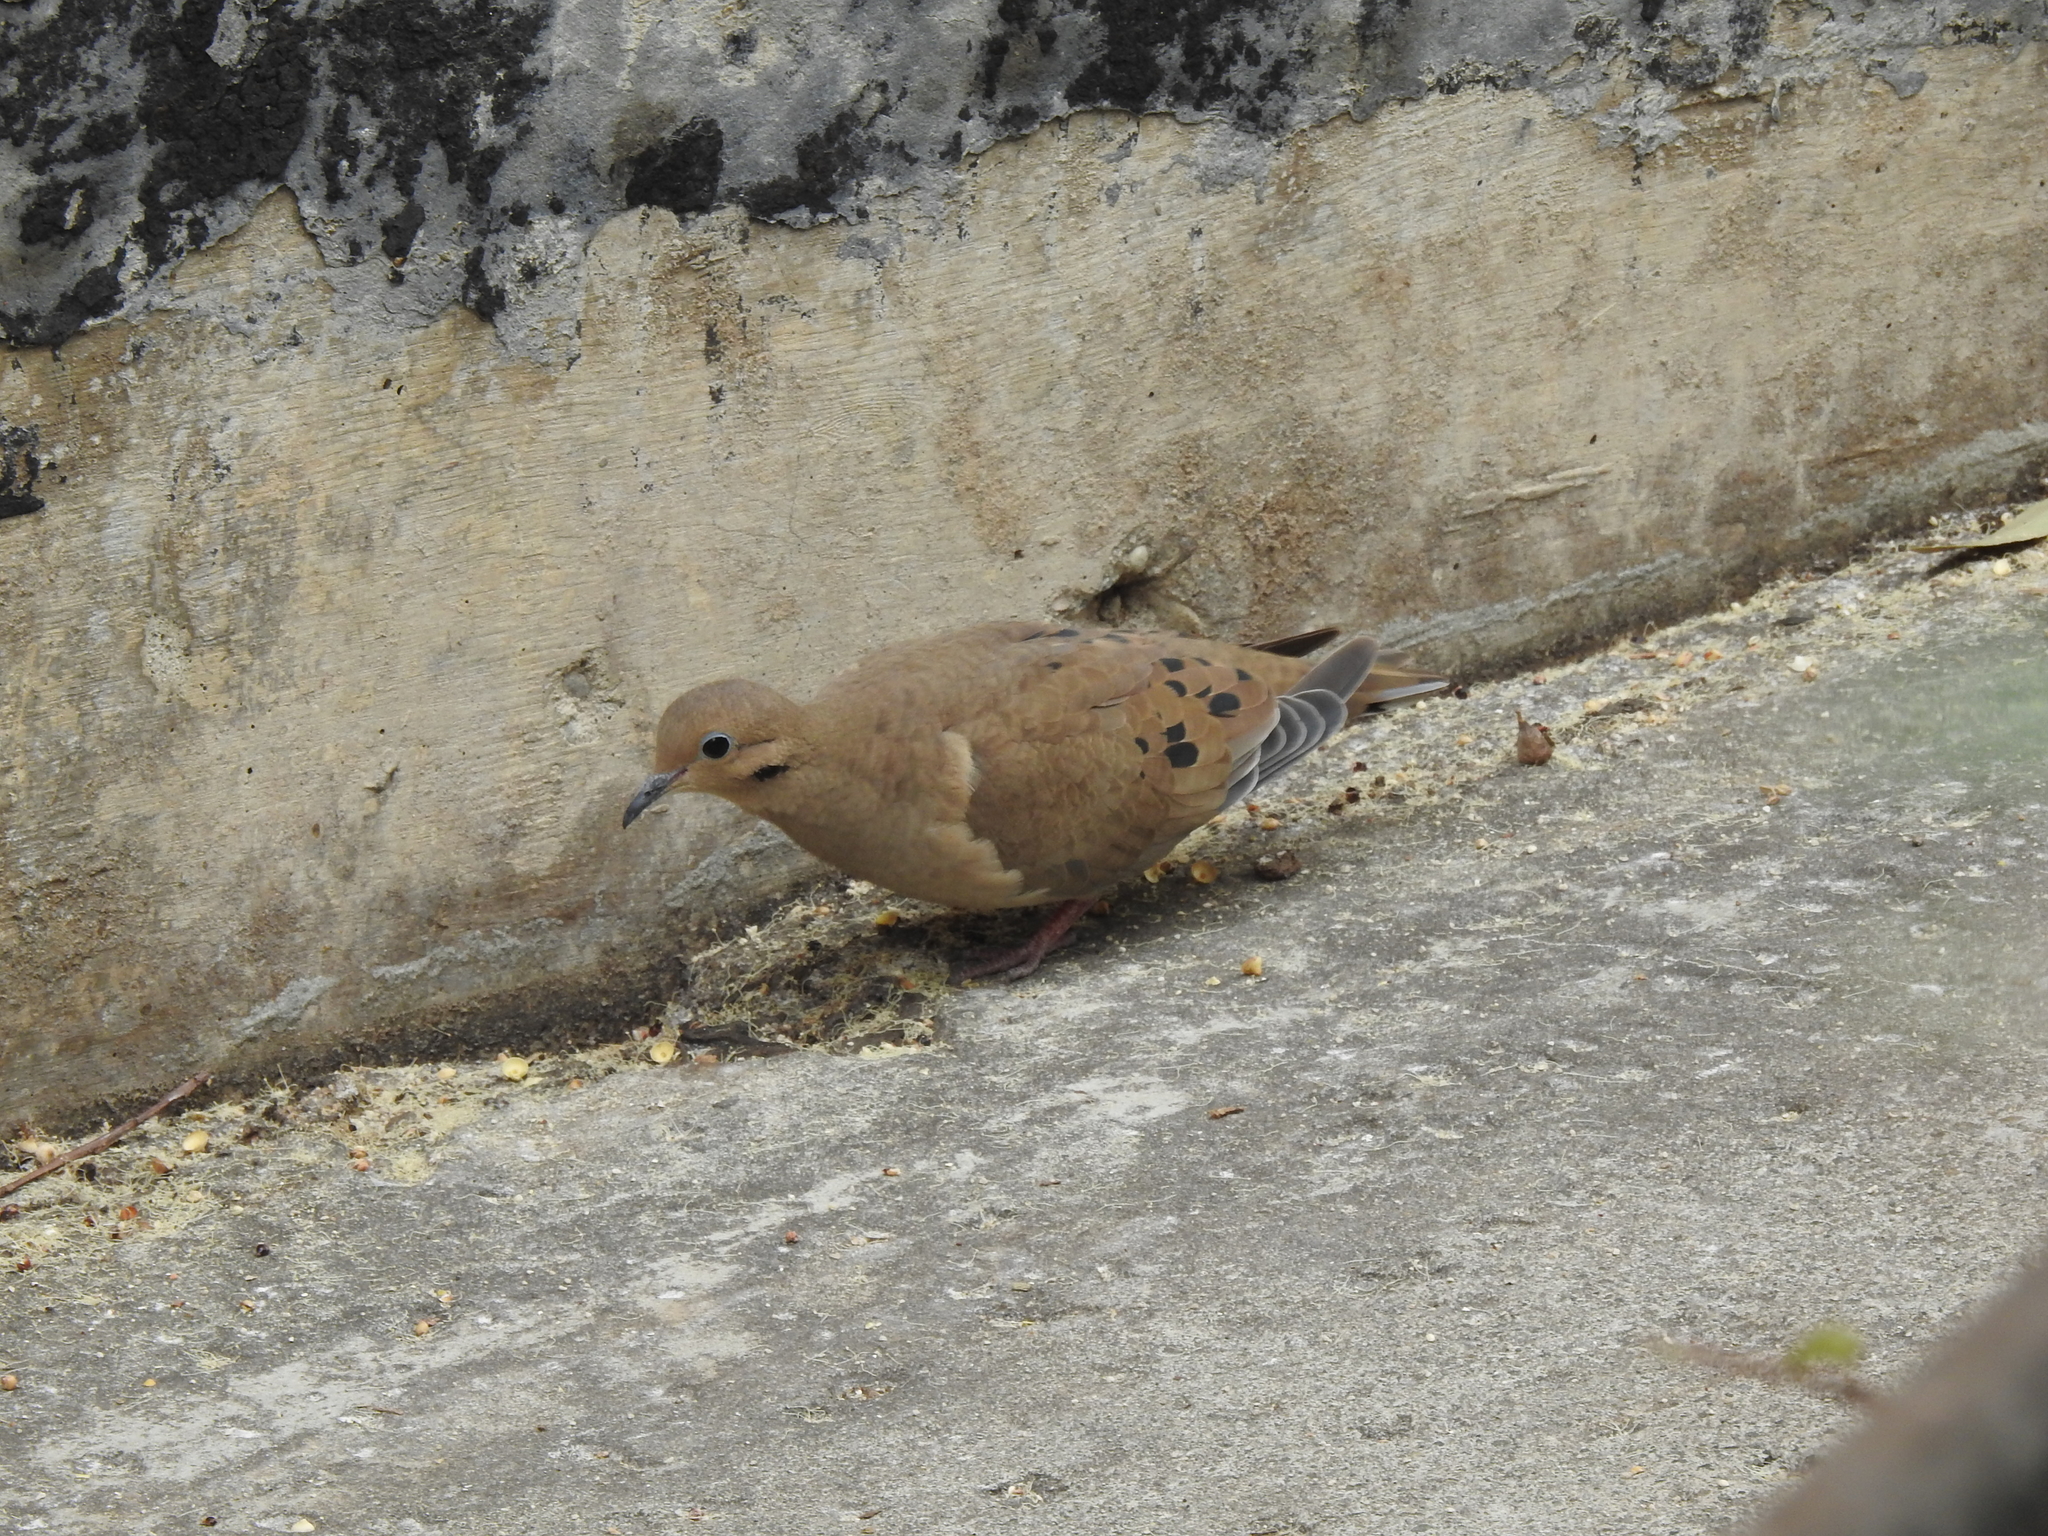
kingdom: Animalia
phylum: Chordata
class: Aves
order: Columbiformes
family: Columbidae
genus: Zenaida
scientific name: Zenaida macroura
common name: Mourning dove
